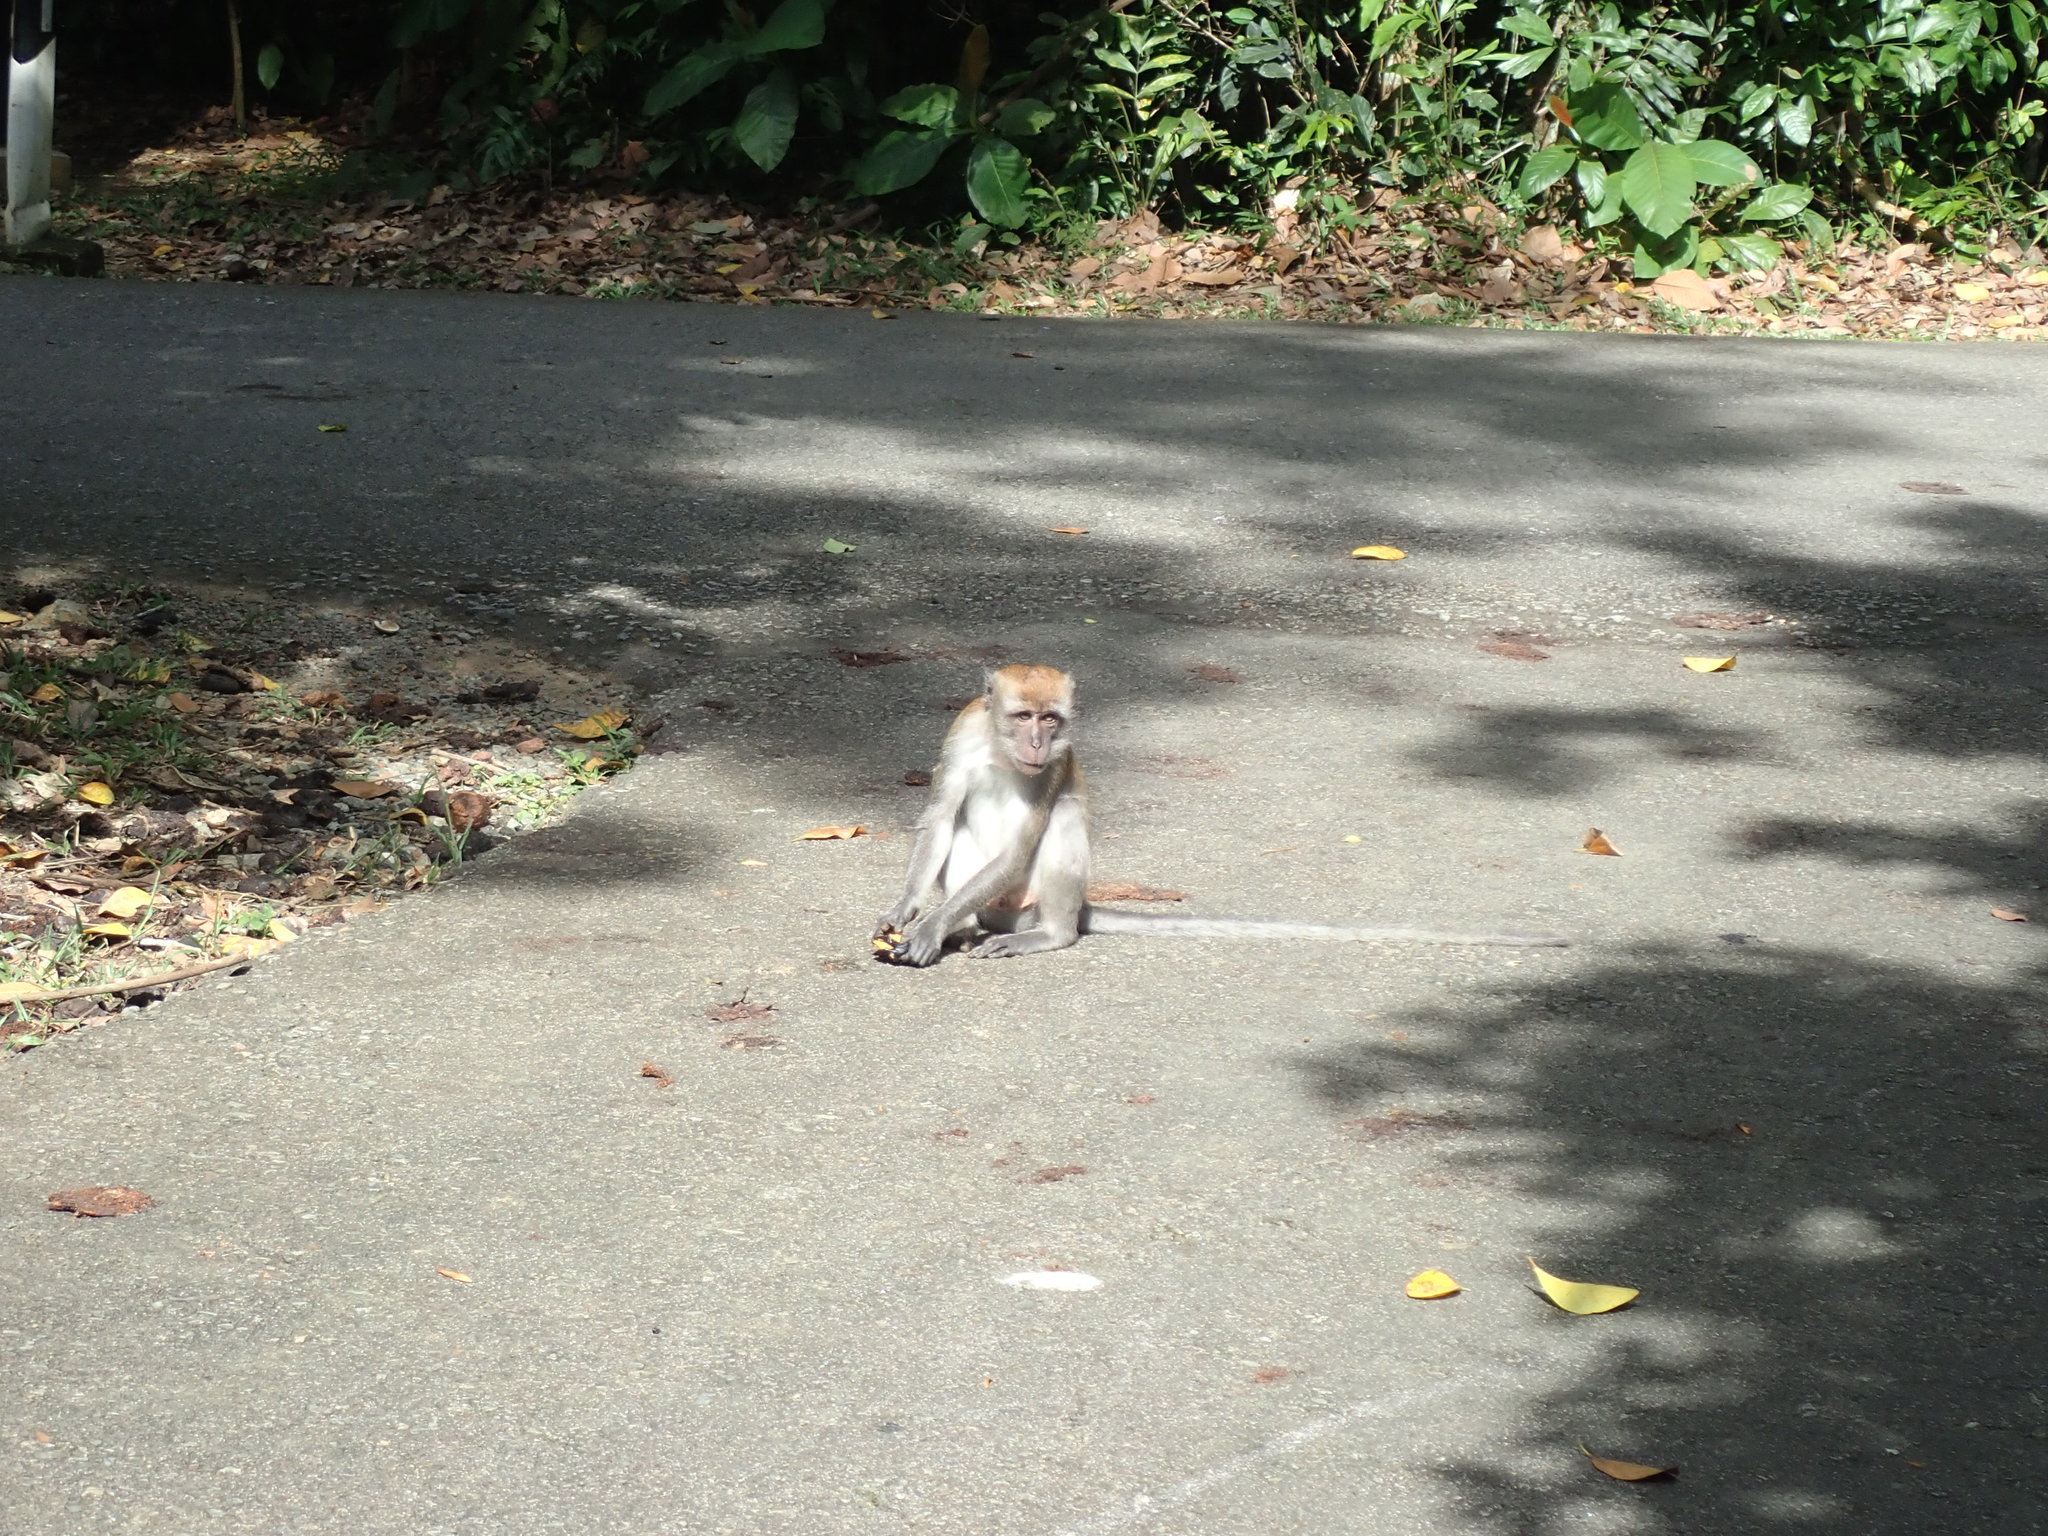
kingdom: Animalia
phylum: Chordata
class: Mammalia
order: Primates
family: Cercopithecidae
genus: Macaca
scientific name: Macaca fascicularis
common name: Crab-eating macaque
